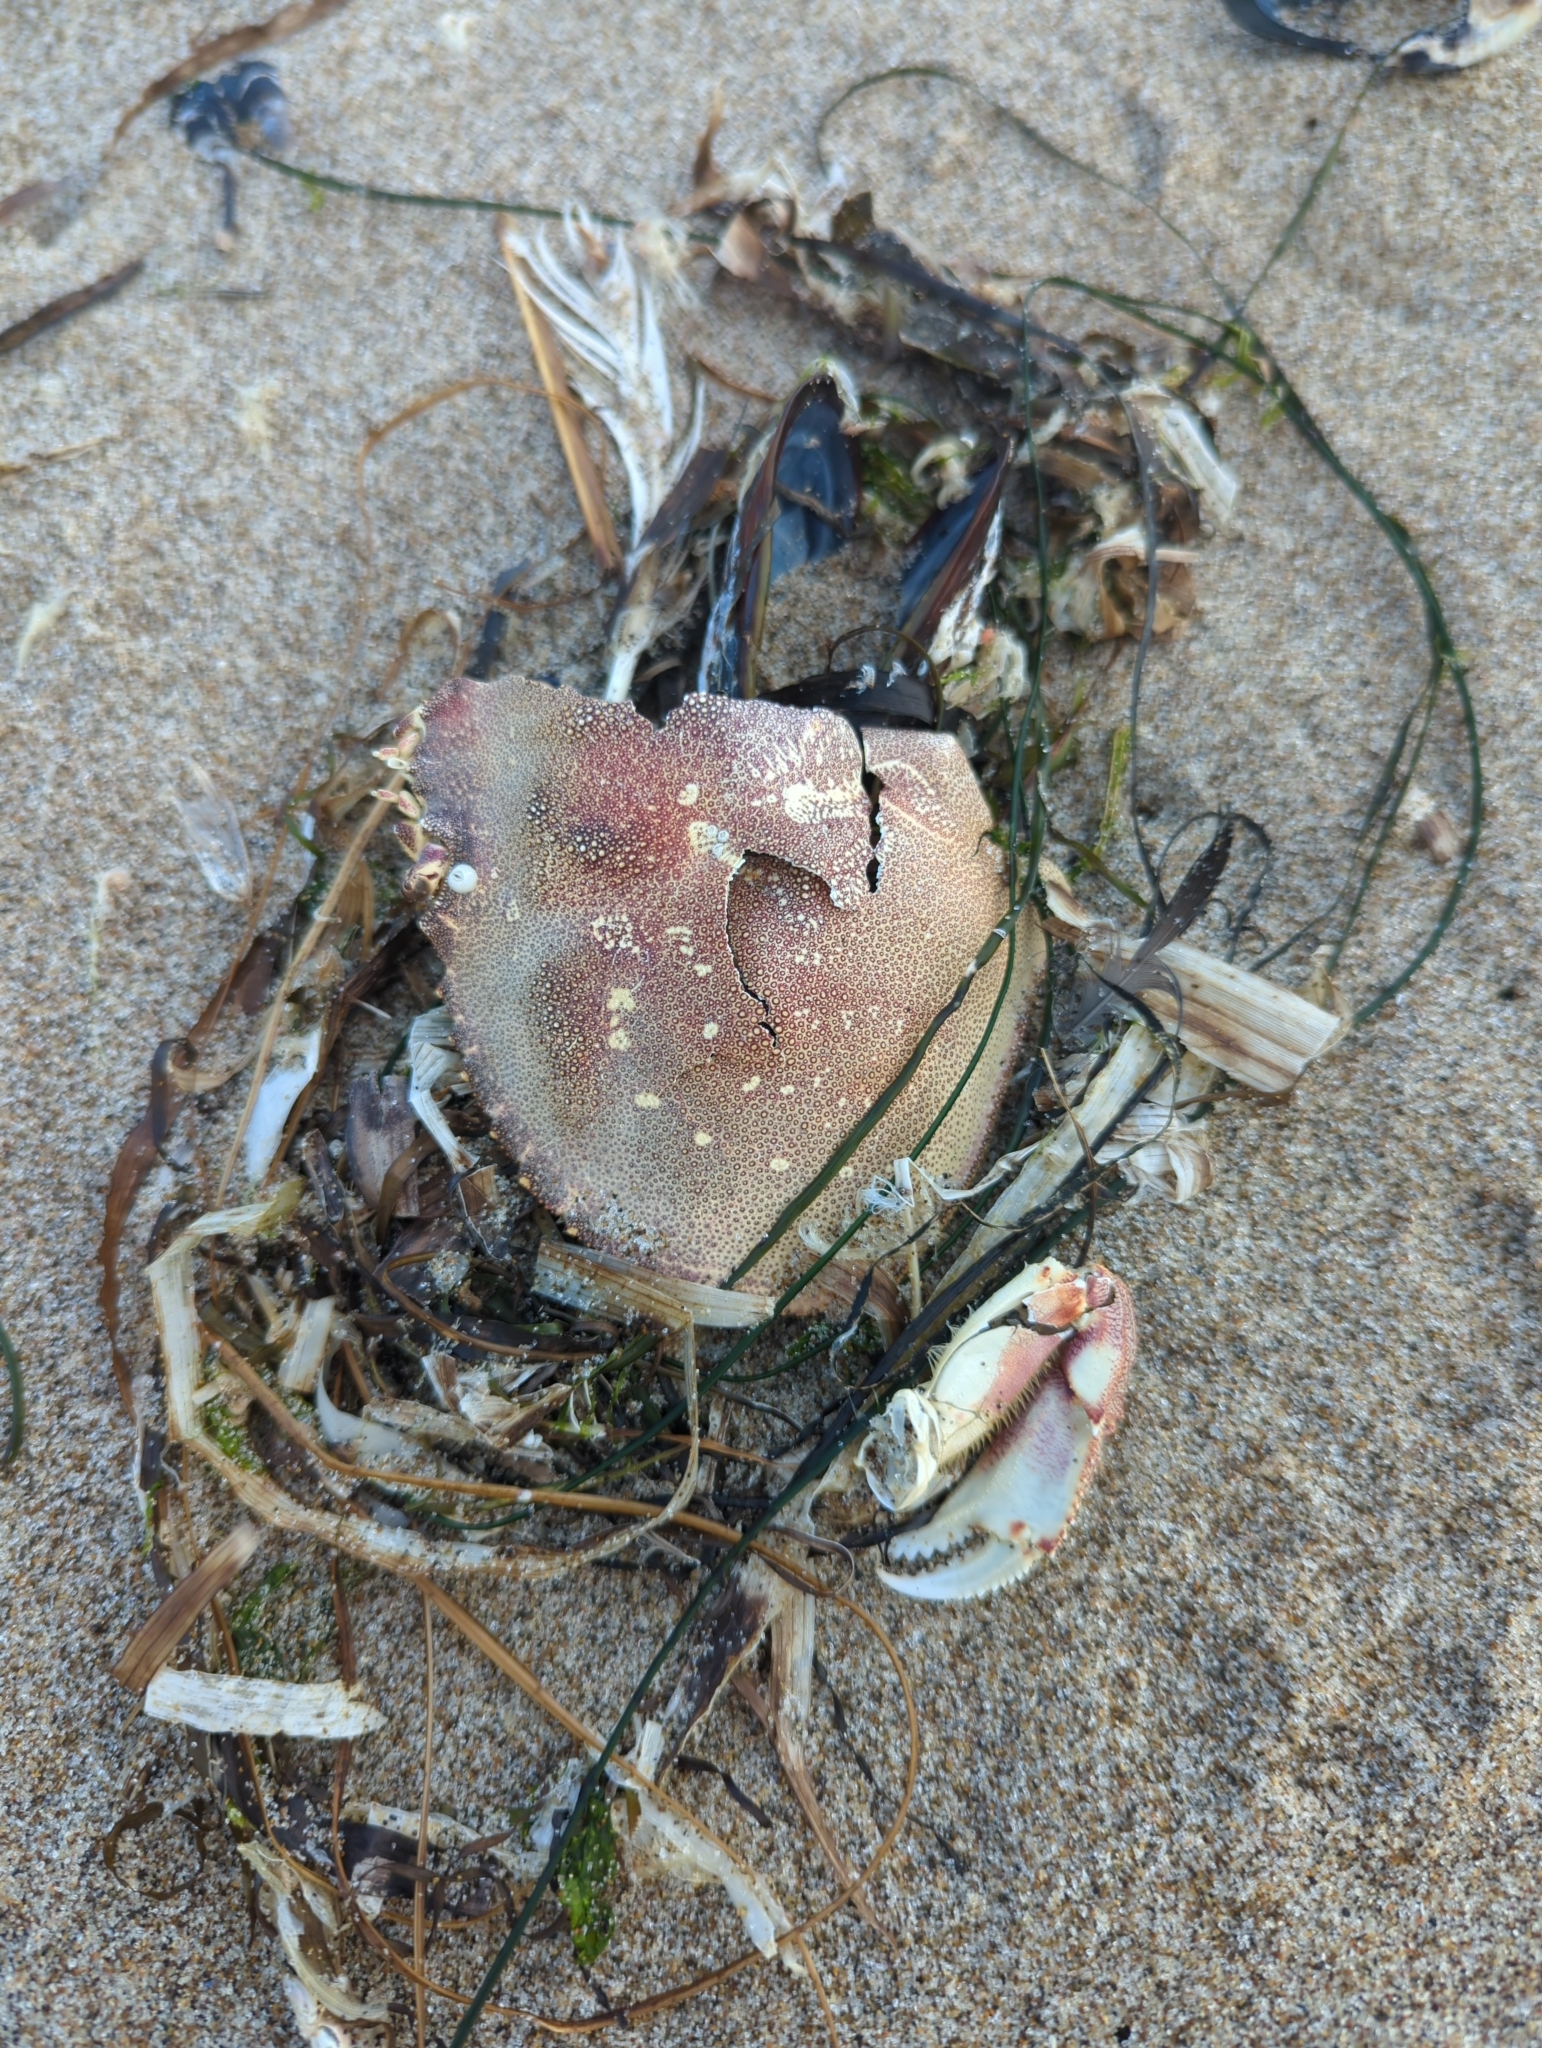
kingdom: Animalia
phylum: Arthropoda
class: Malacostraca
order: Decapoda
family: Cancridae
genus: Metacarcinus
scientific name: Metacarcinus magister
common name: Californian crab
